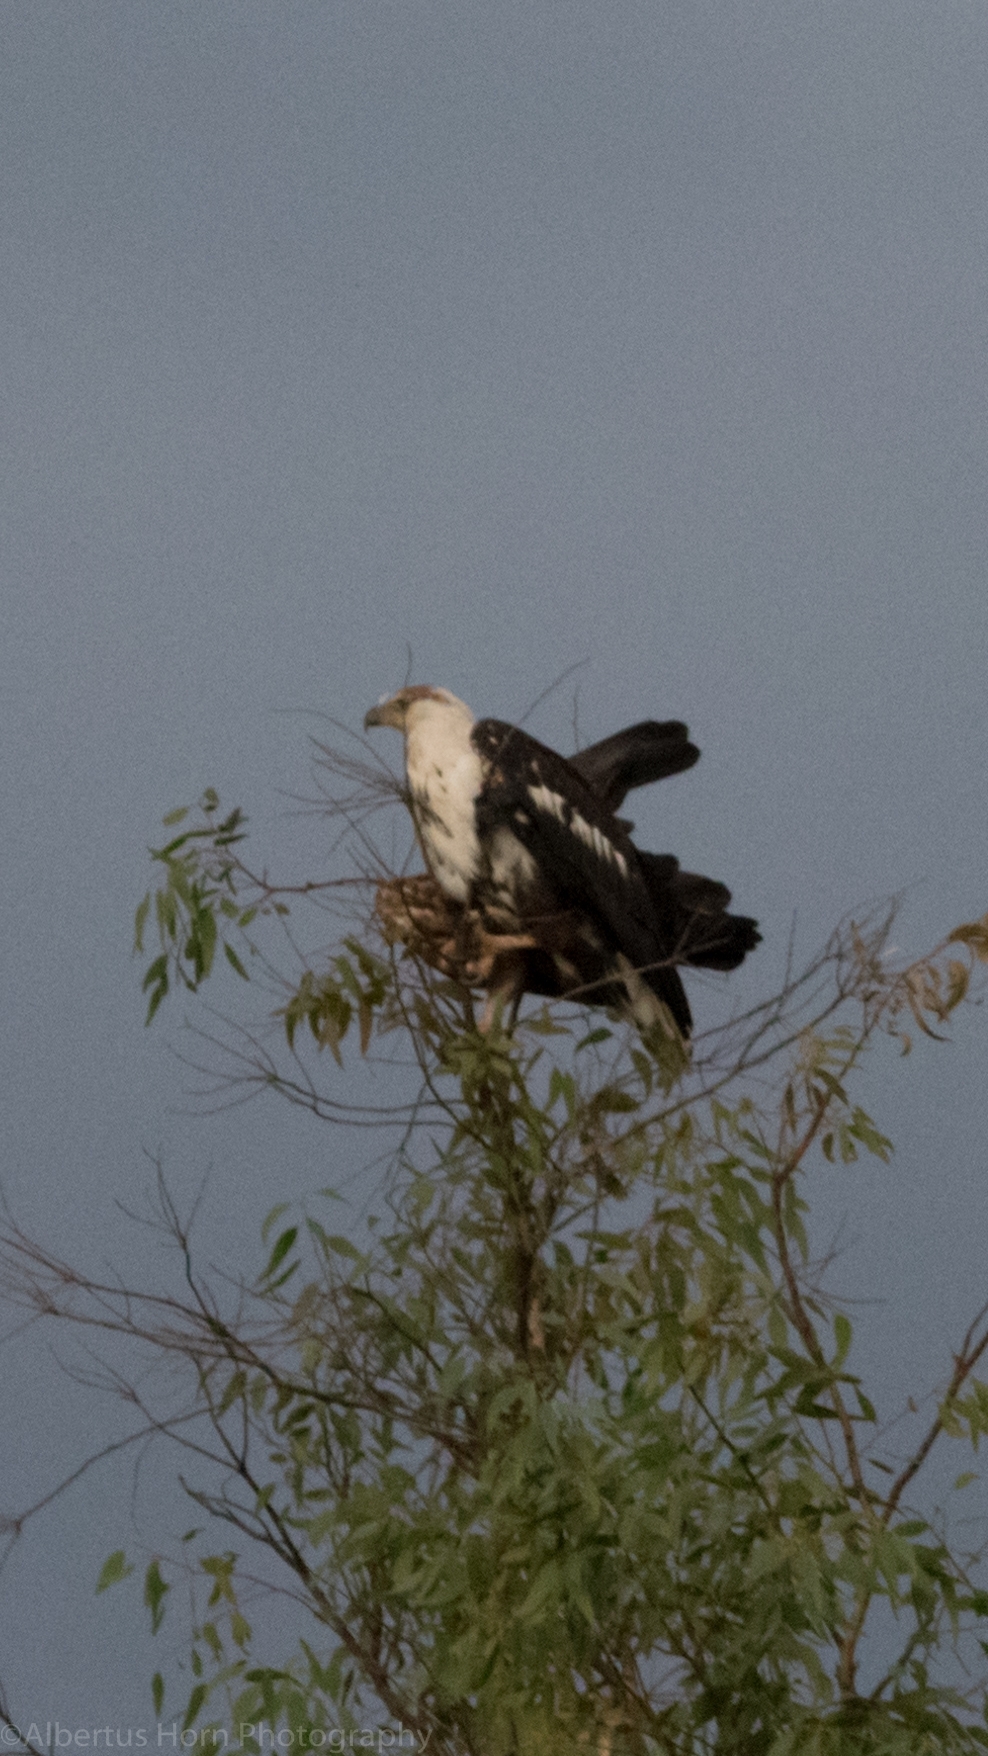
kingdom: Animalia
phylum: Chordata
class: Aves
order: Accipitriformes
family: Accipitridae
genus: Haliaeetus
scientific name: Haliaeetus vocifer
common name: African fish eagle
